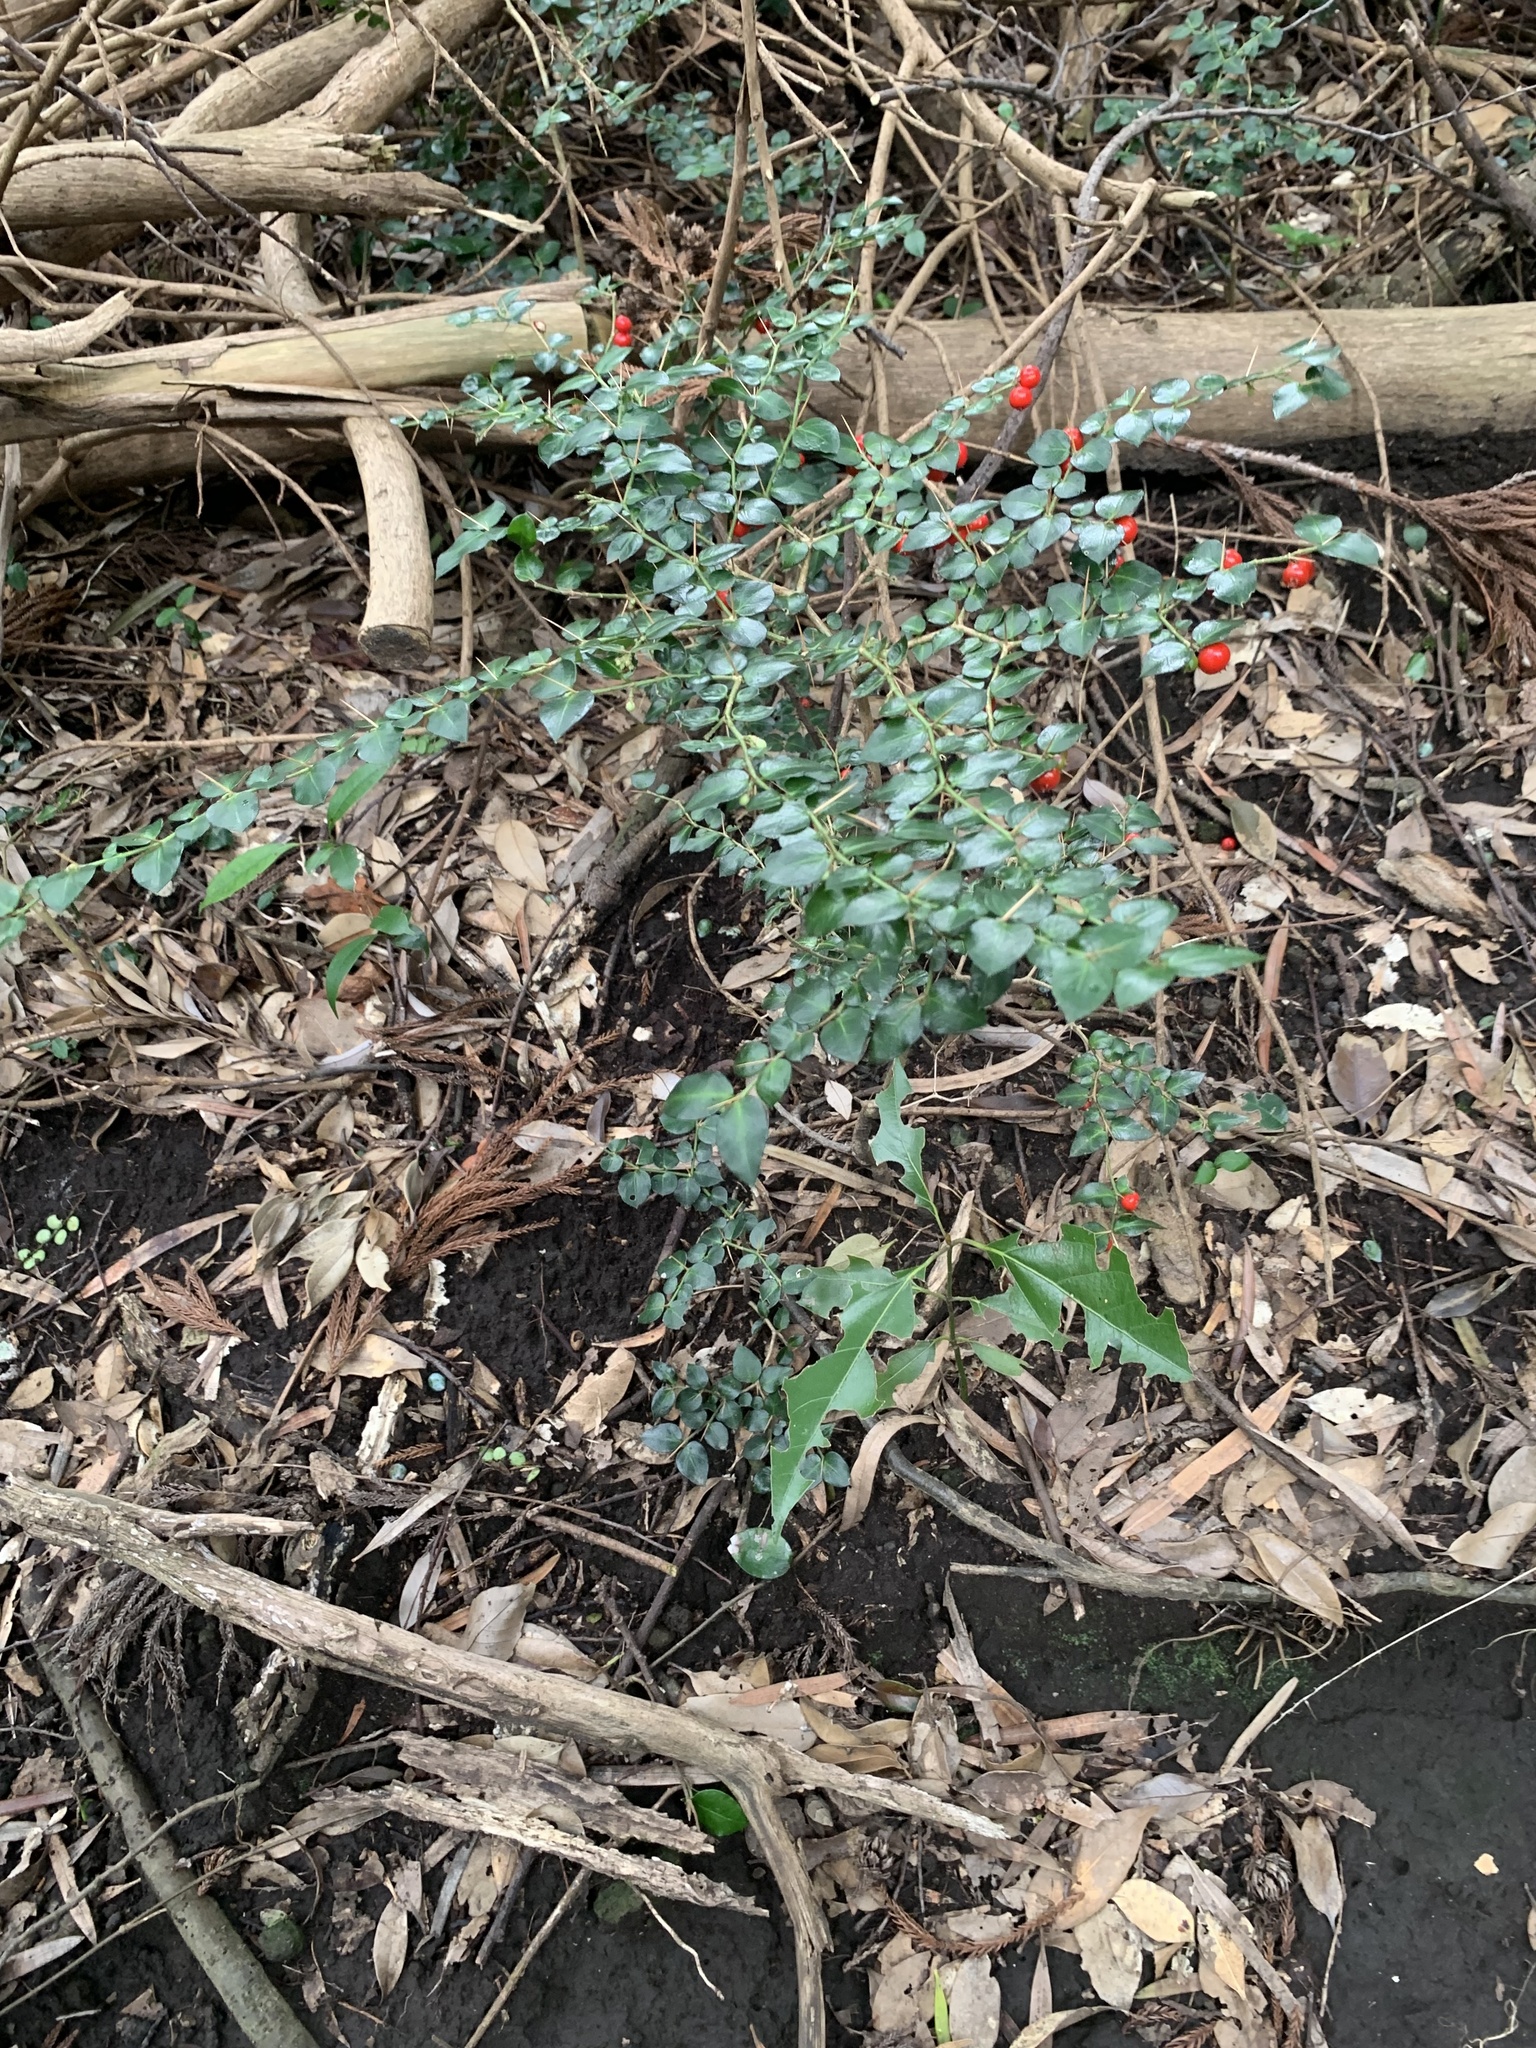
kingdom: Plantae
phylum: Tracheophyta
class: Magnoliopsida
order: Gentianales
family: Rubiaceae
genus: Damnacanthus
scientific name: Damnacanthus indicus
